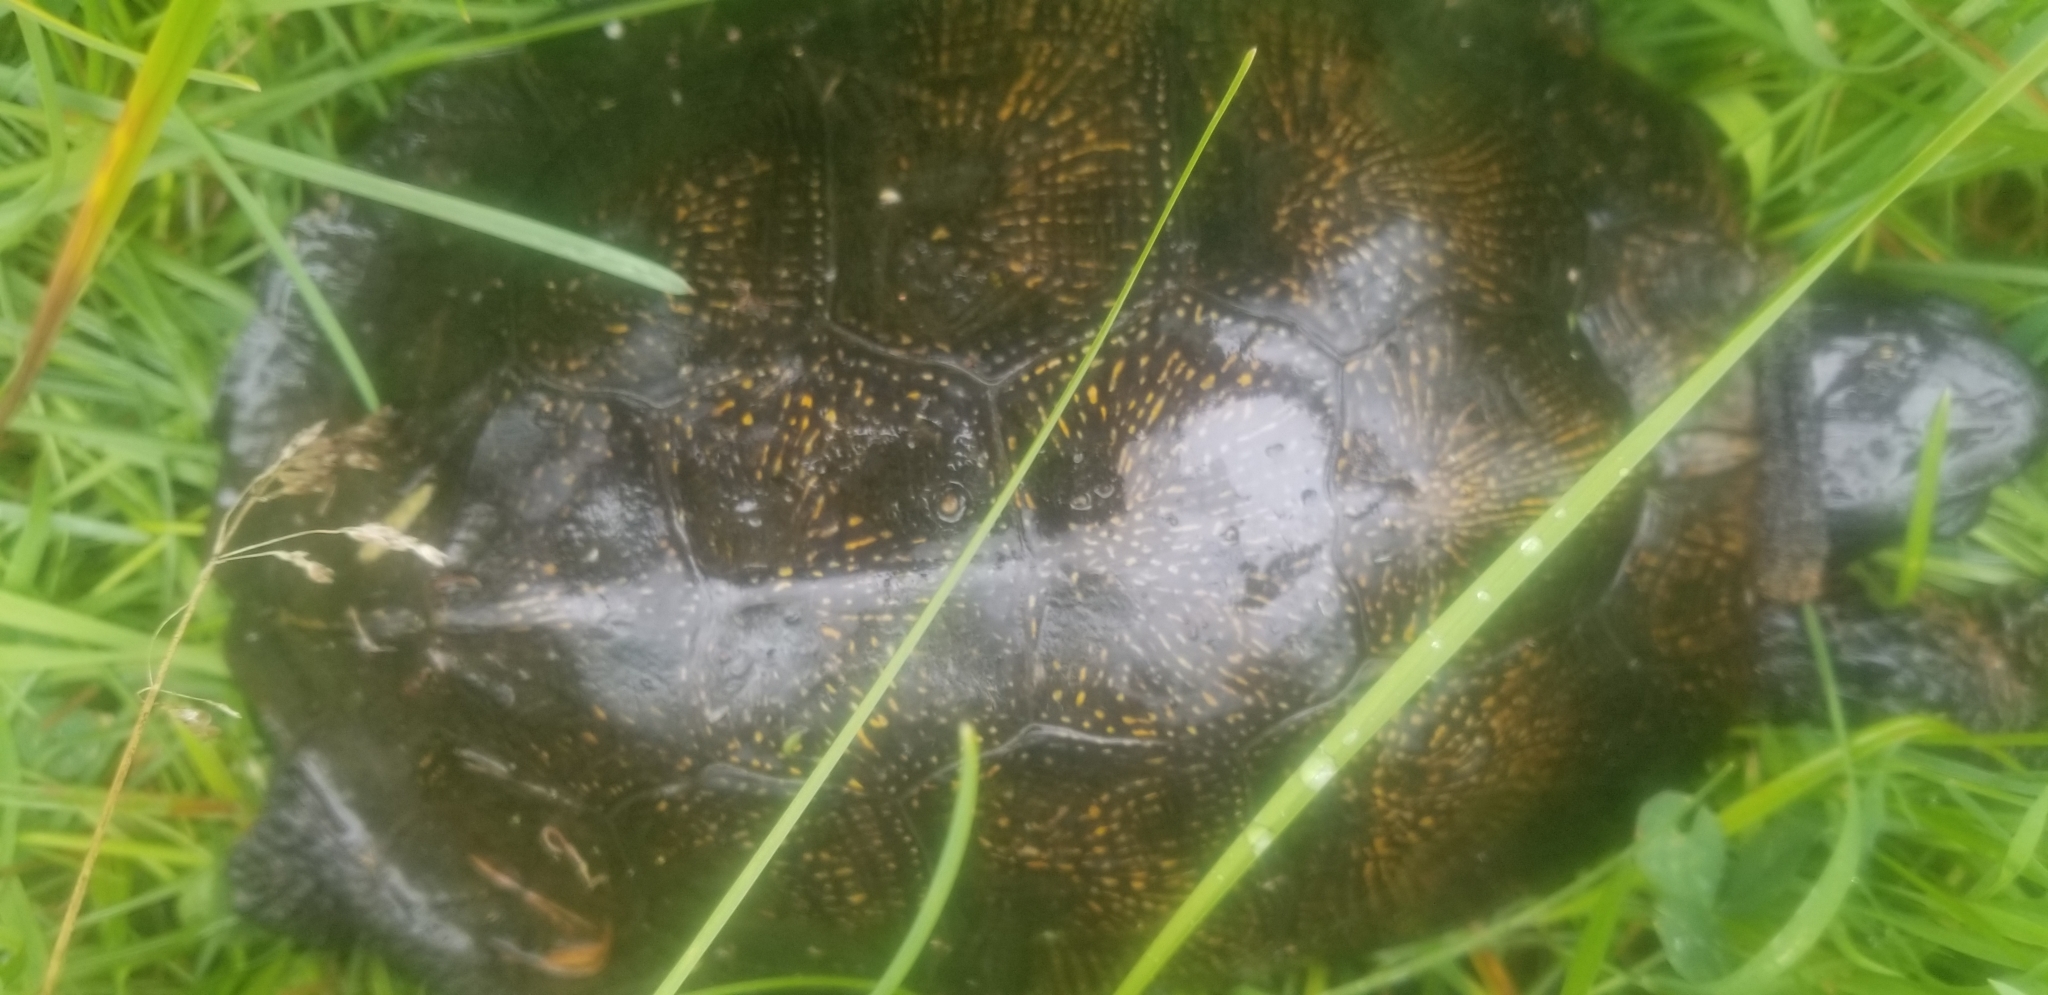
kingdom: Animalia
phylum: Chordata
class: Testudines
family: Emydidae
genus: Glyptemys
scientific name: Glyptemys insculpta
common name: Wood turtle
